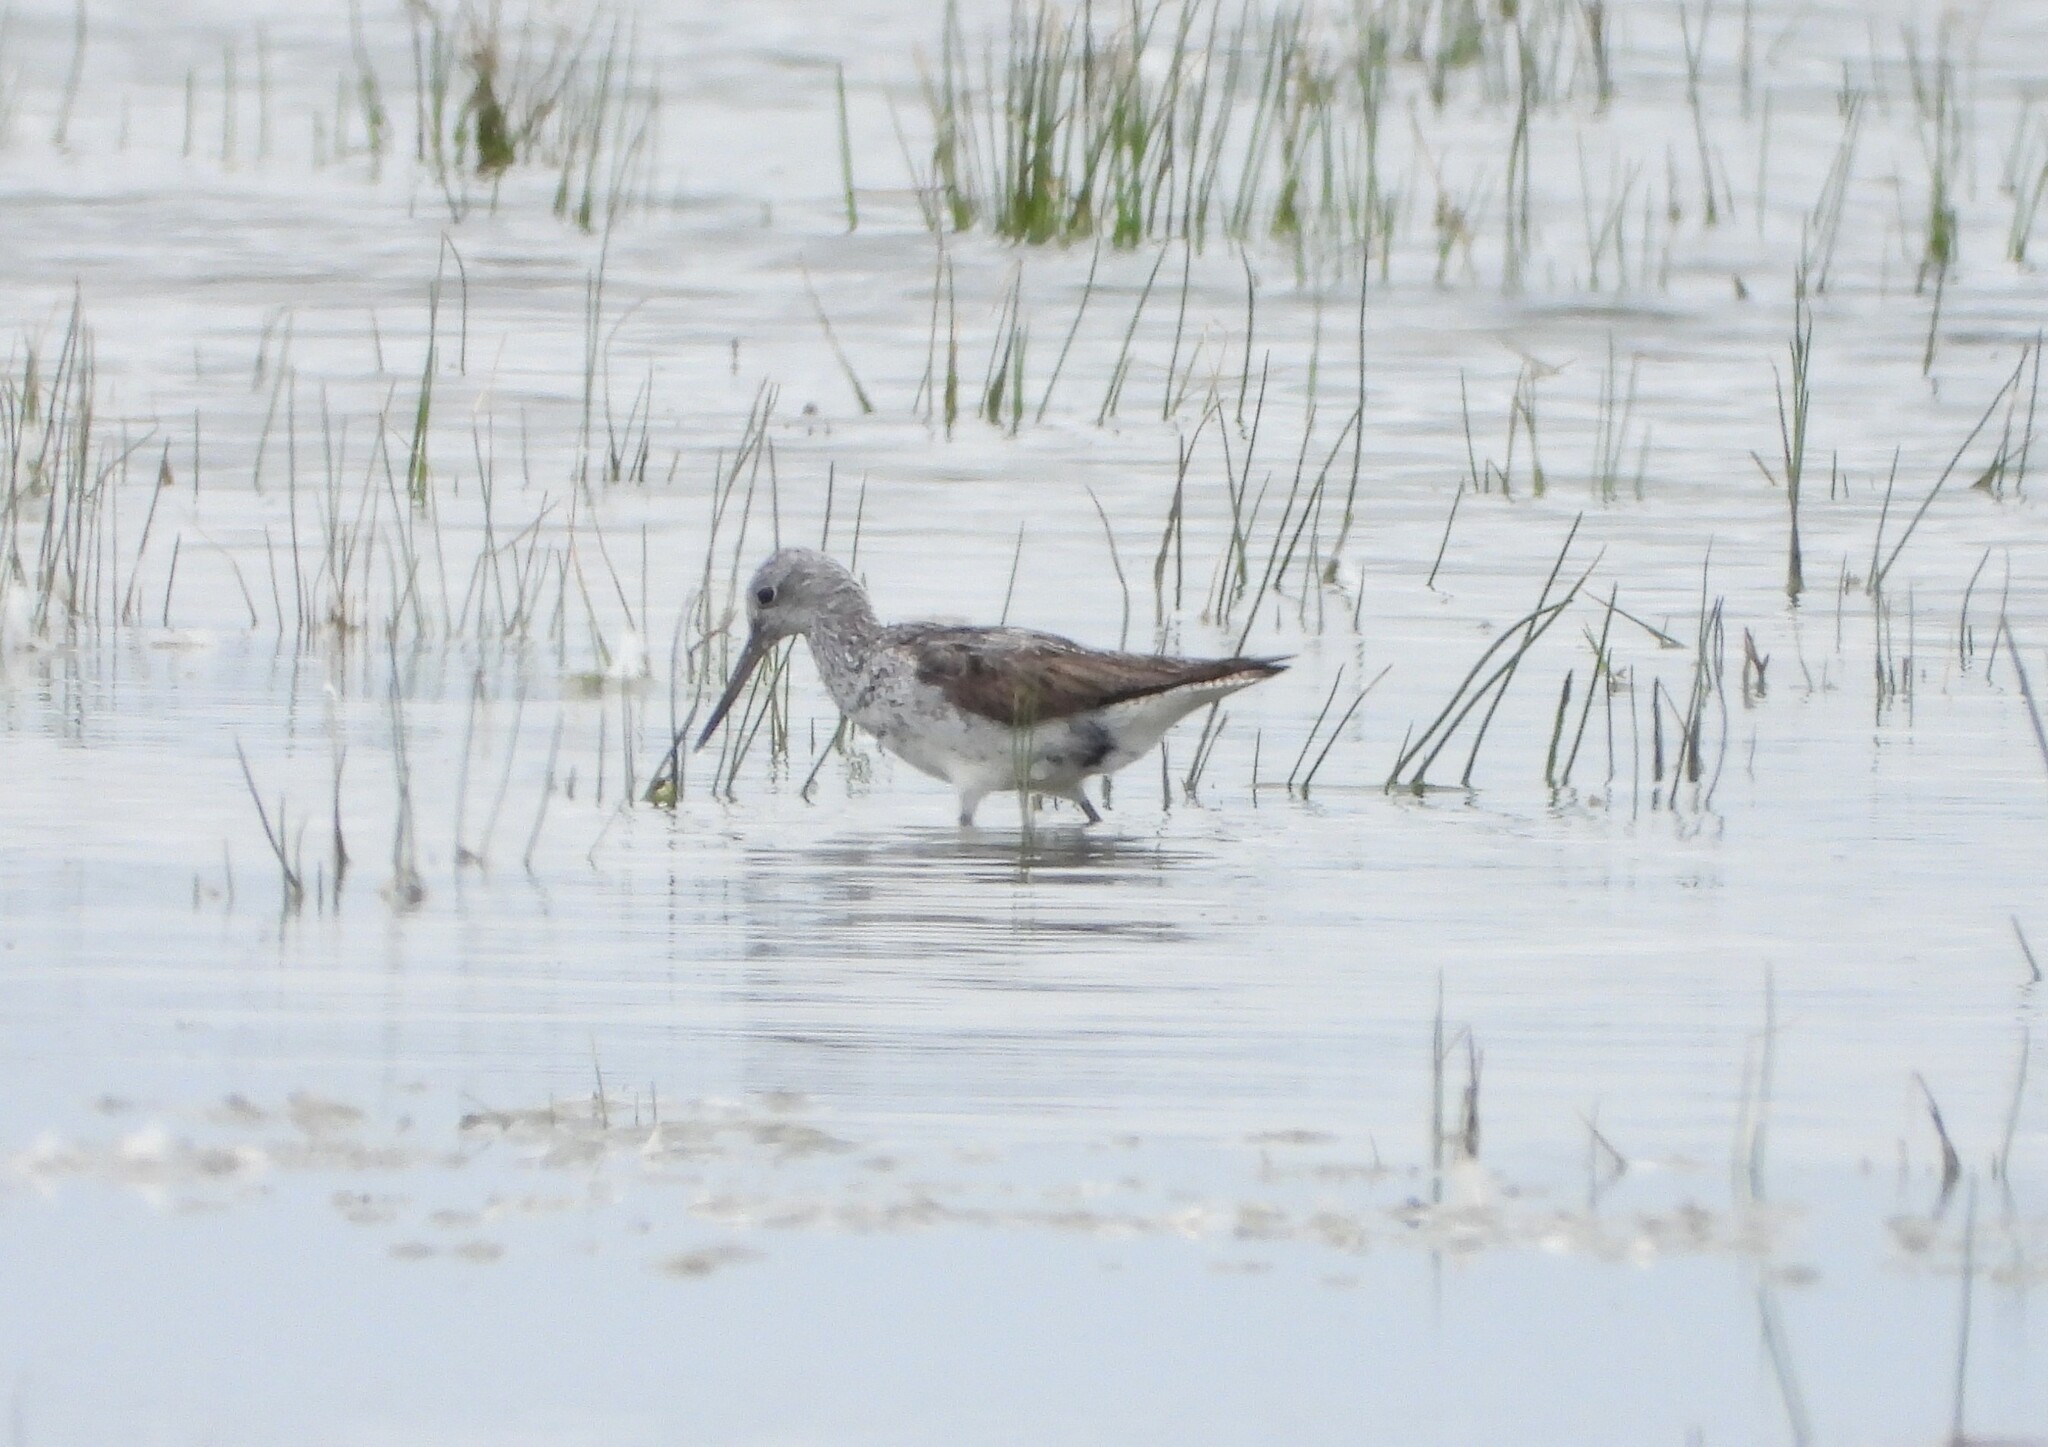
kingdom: Animalia
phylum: Chordata
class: Aves
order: Charadriiformes
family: Scolopacidae
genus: Tringa
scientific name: Tringa nebularia
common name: Common greenshank
